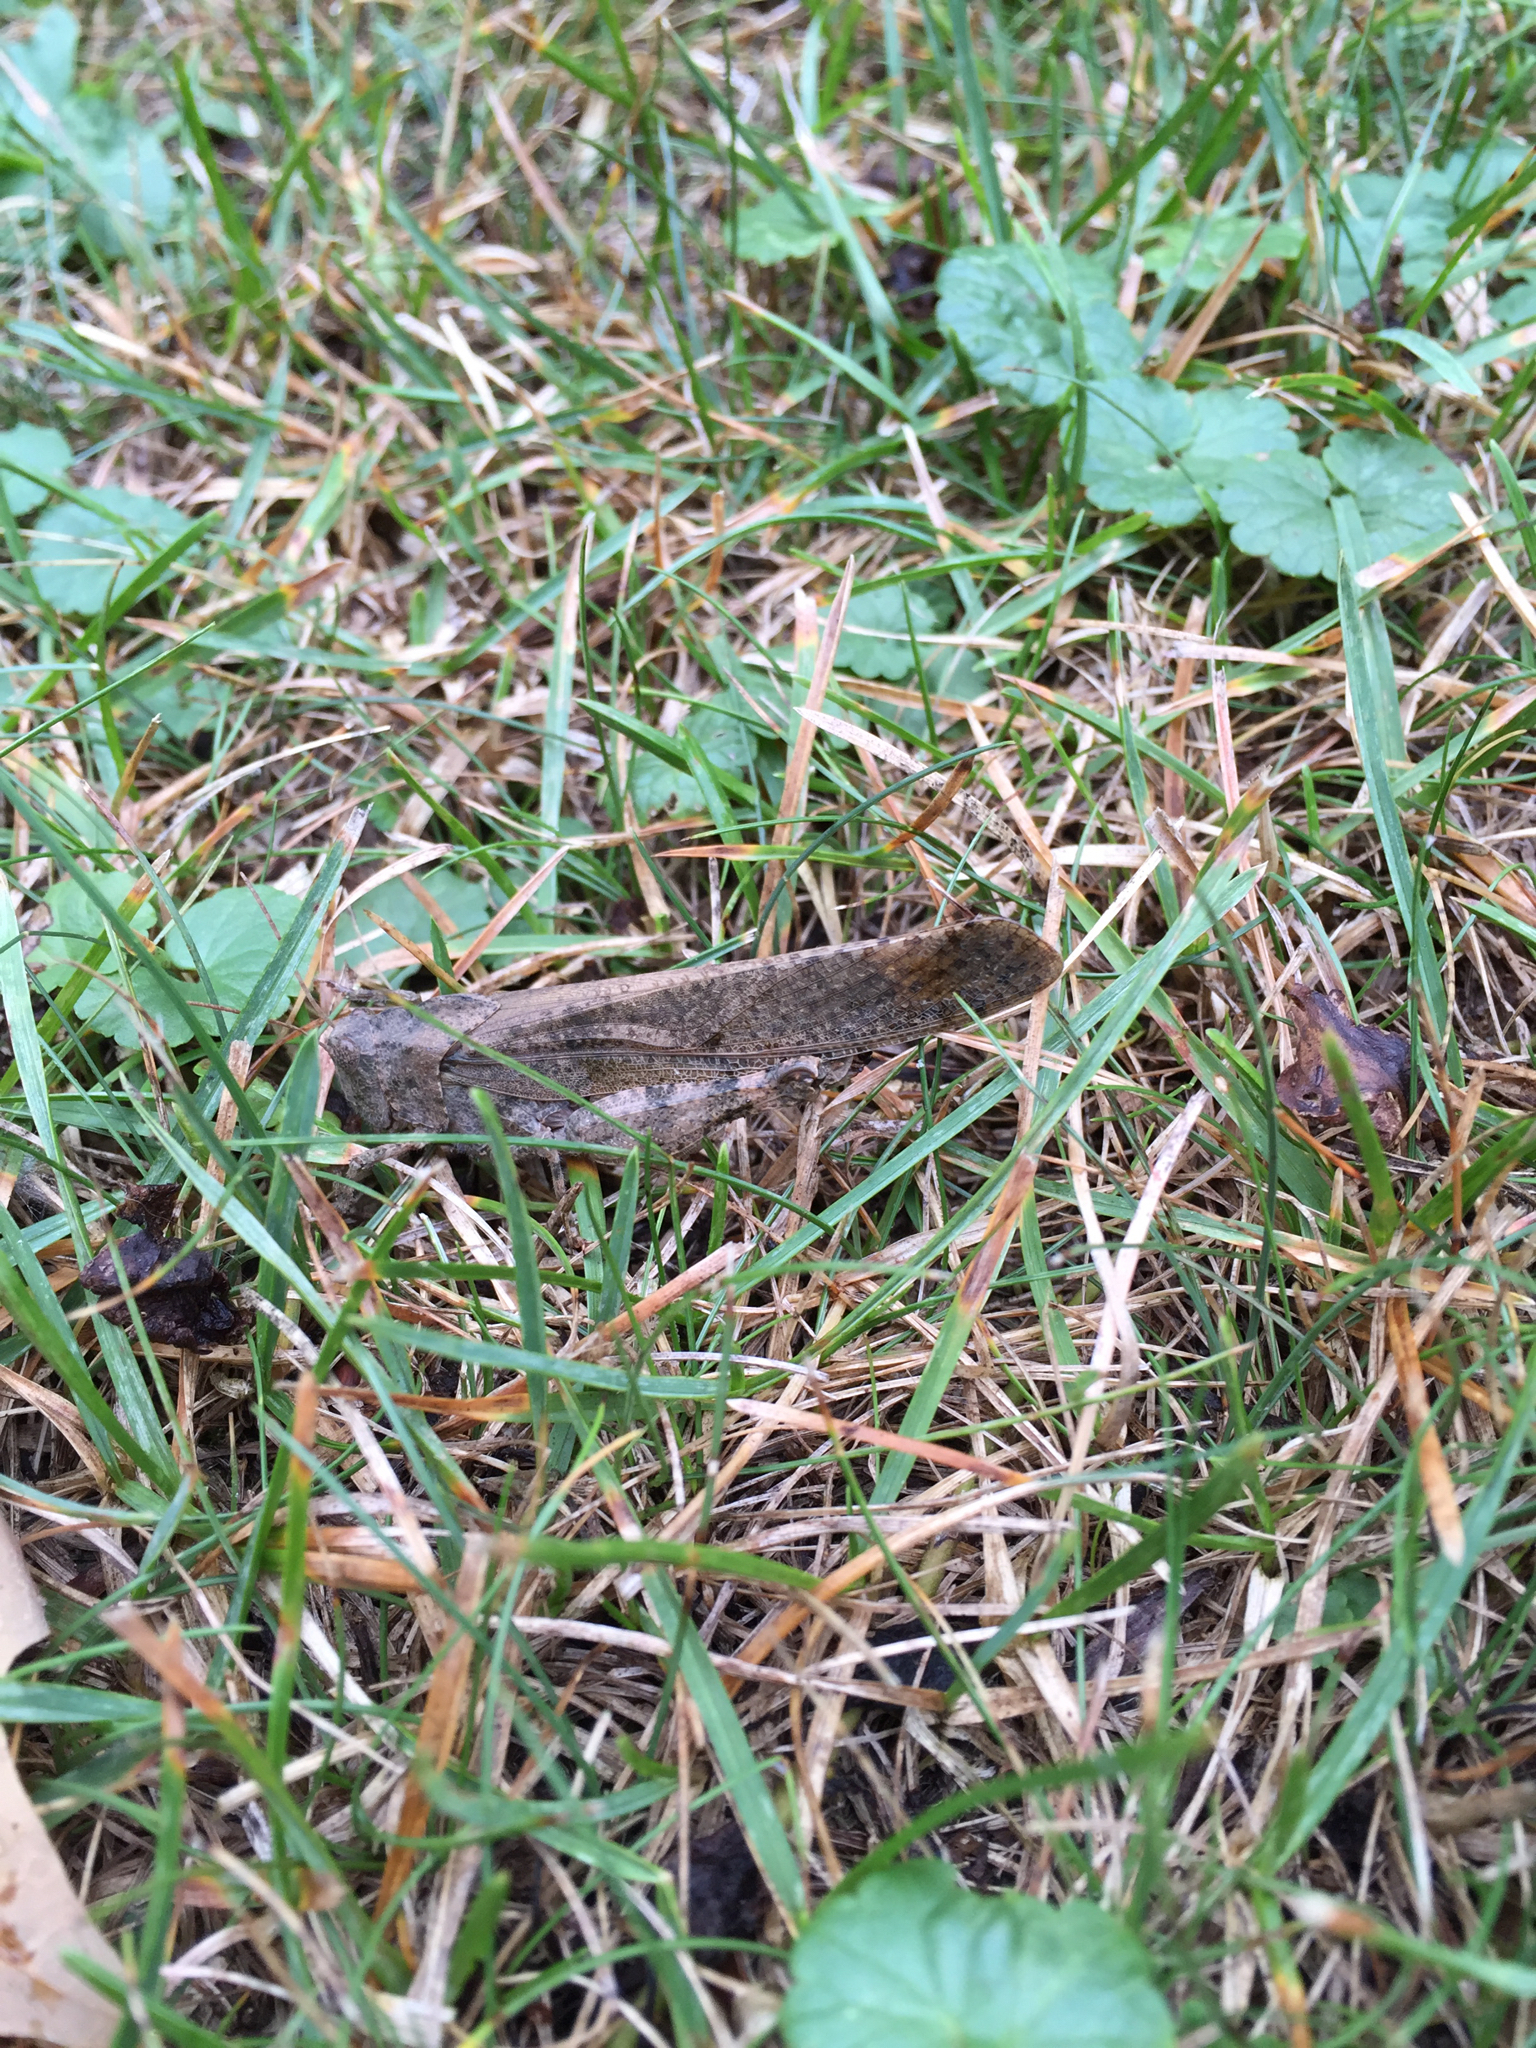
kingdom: Animalia
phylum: Arthropoda
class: Insecta
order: Orthoptera
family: Acrididae
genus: Dissosteira
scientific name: Dissosteira carolina
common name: Carolina grasshopper
